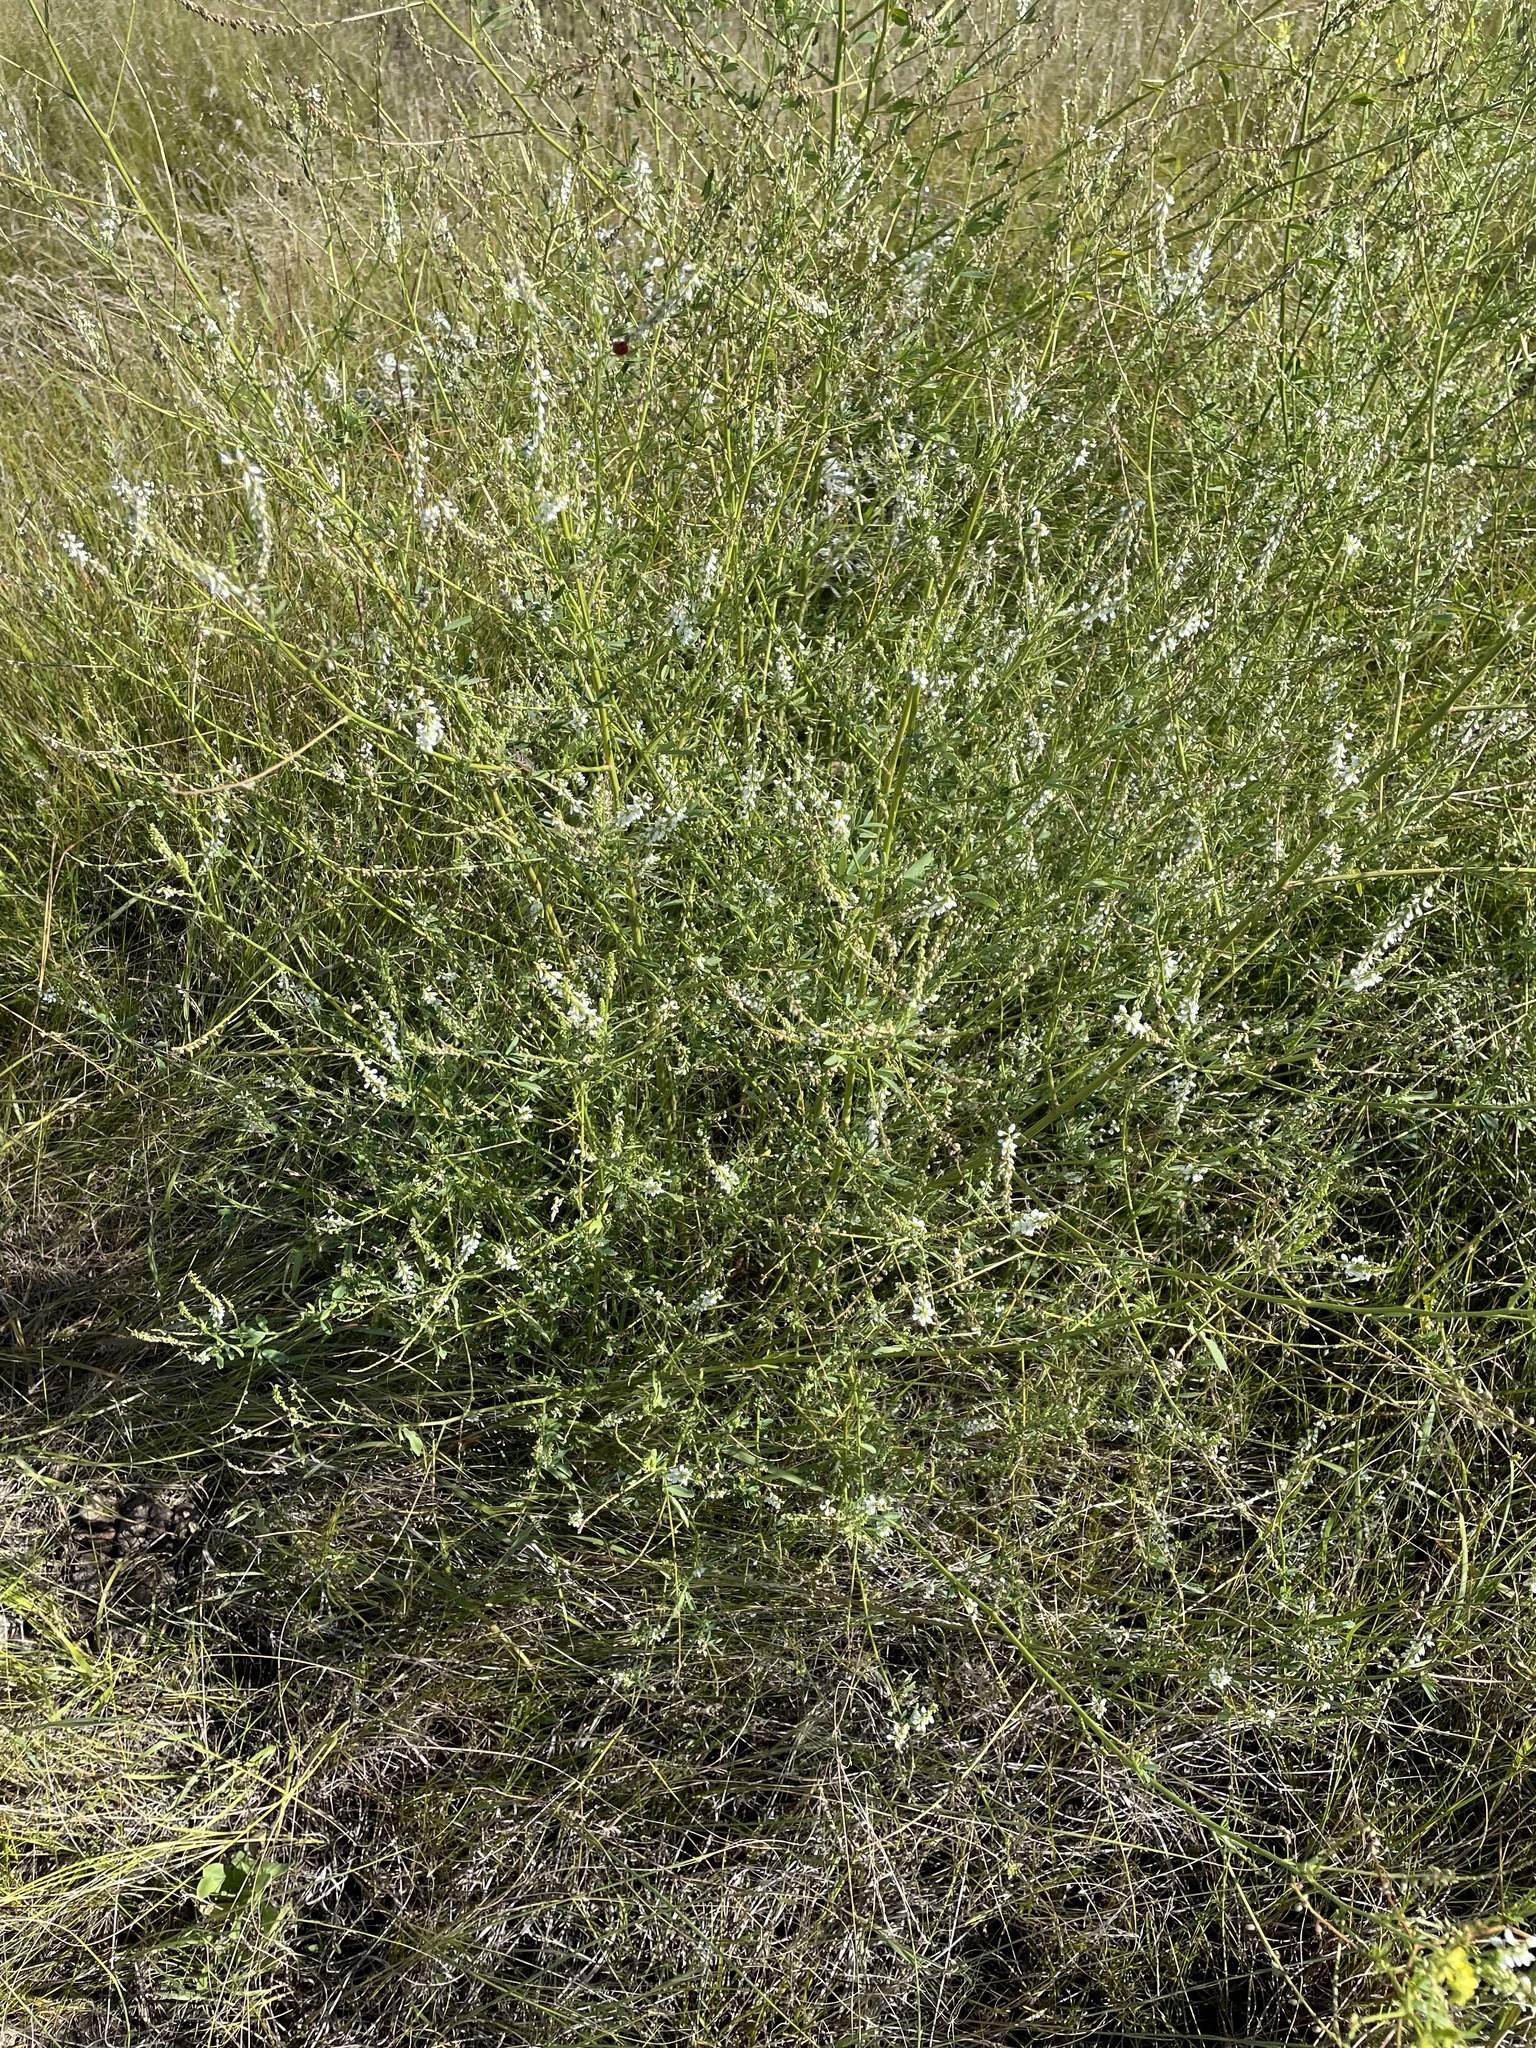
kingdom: Plantae
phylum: Tracheophyta
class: Magnoliopsida
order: Fabales
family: Fabaceae
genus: Melilotus
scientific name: Melilotus albus
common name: White melilot
